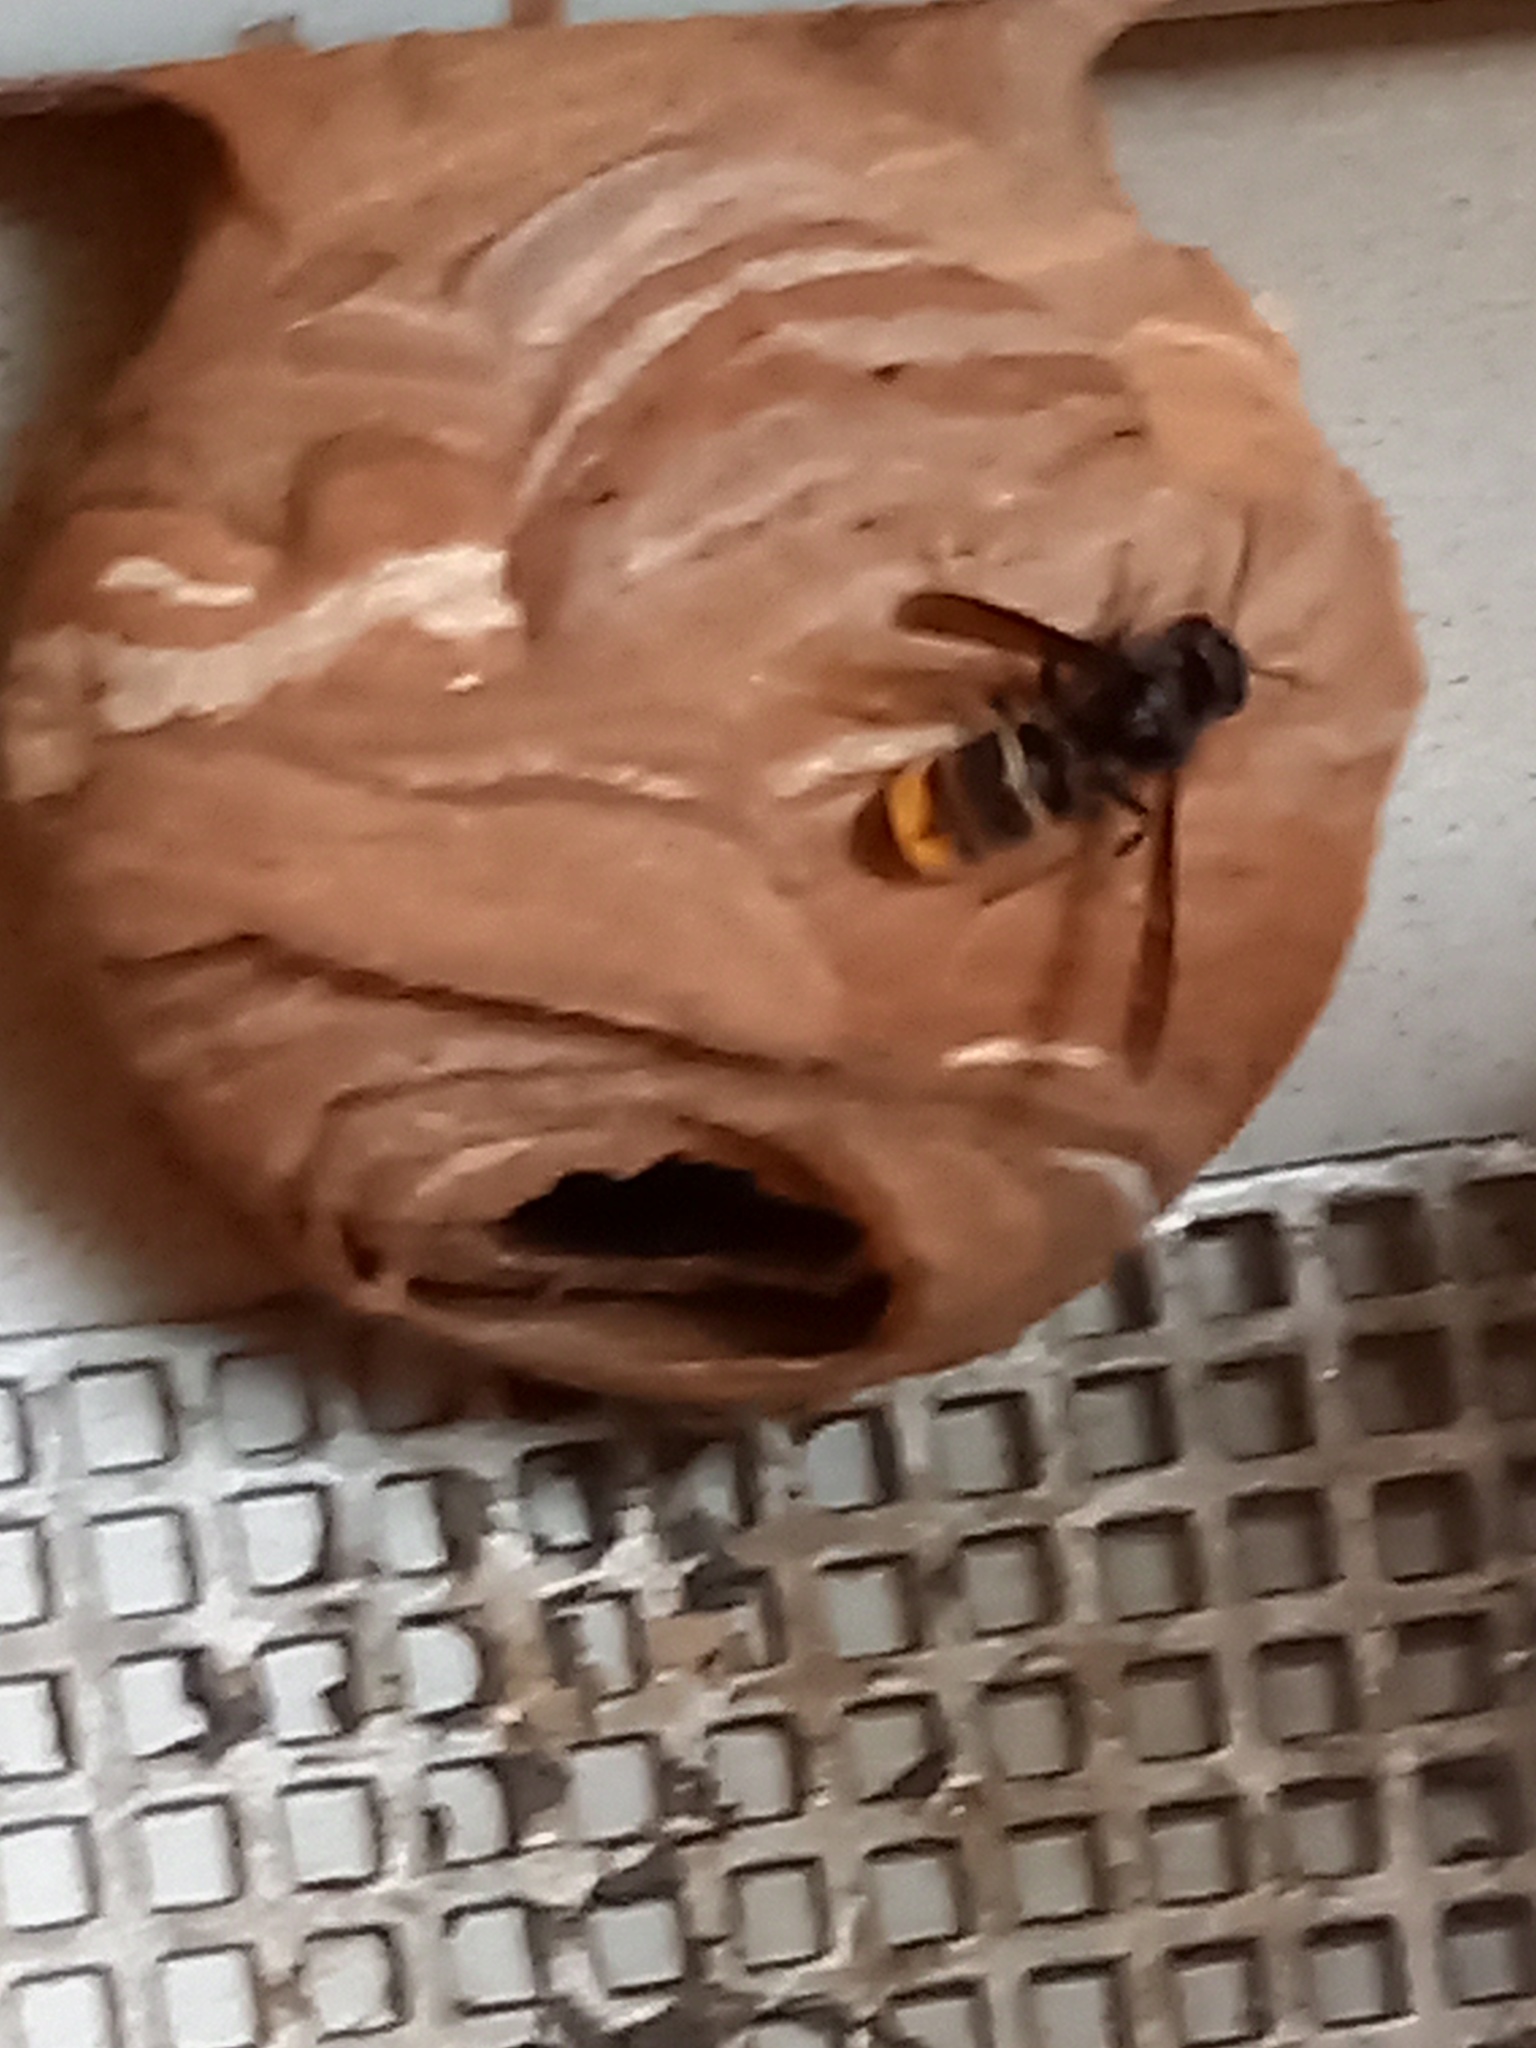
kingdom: Animalia
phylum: Arthropoda
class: Insecta
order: Hymenoptera
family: Vespidae
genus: Vespa
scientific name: Vespa velutina
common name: Asian hornet
